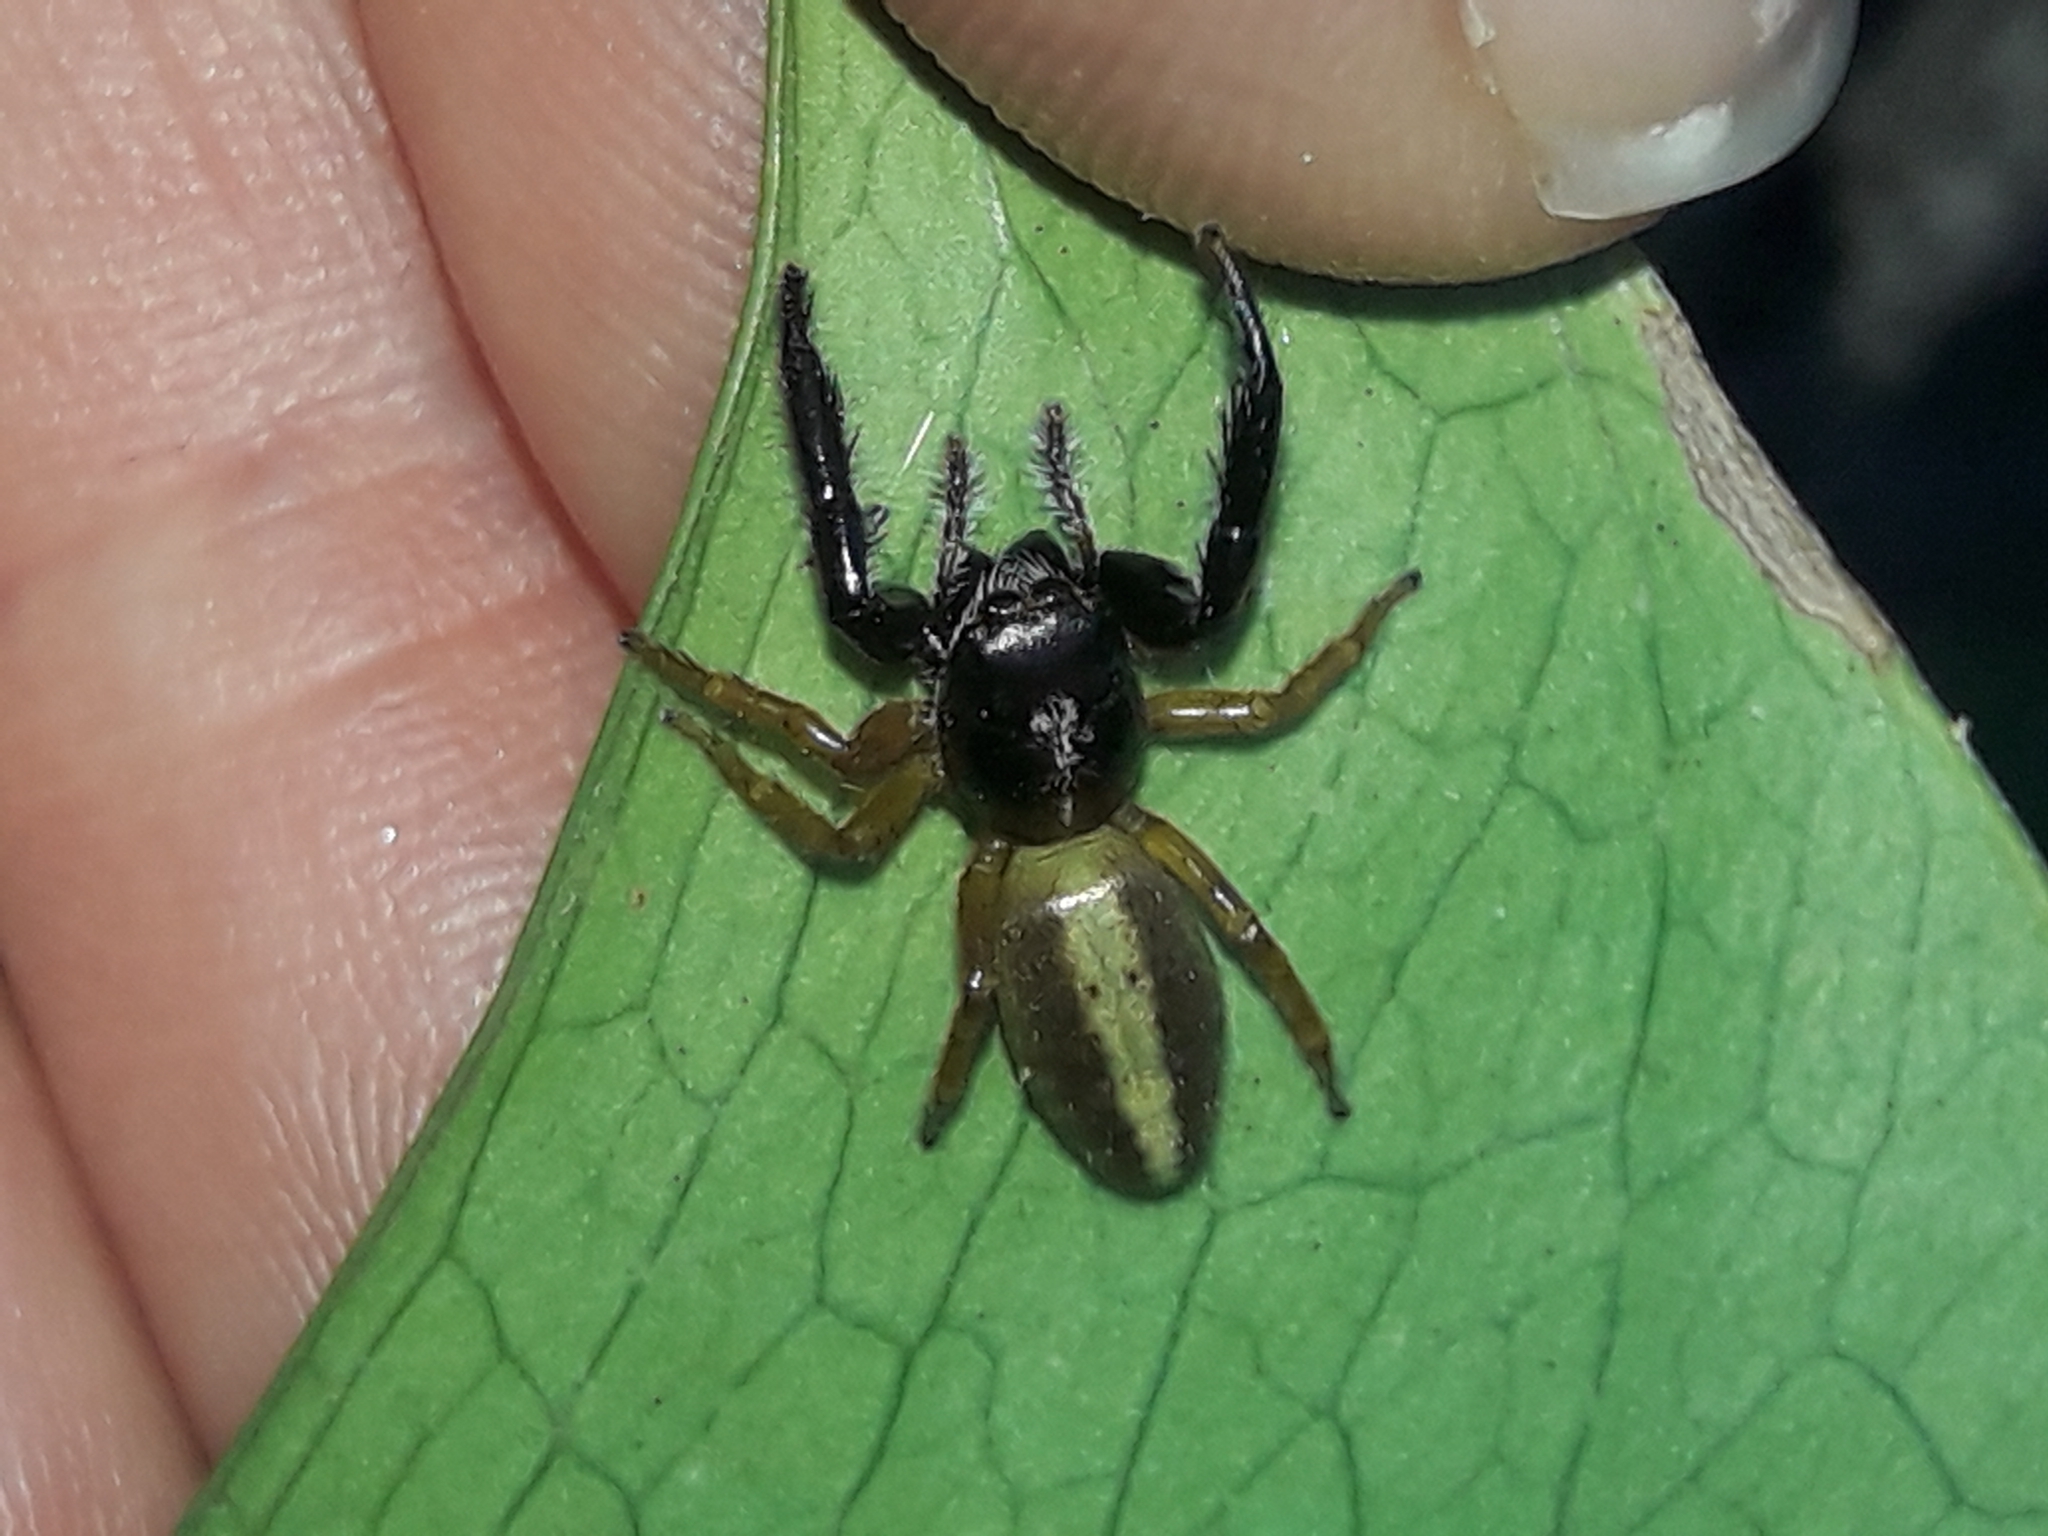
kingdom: Animalia
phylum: Arthropoda
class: Arachnida
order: Araneae
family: Salticidae
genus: Trite
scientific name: Trite planiceps
